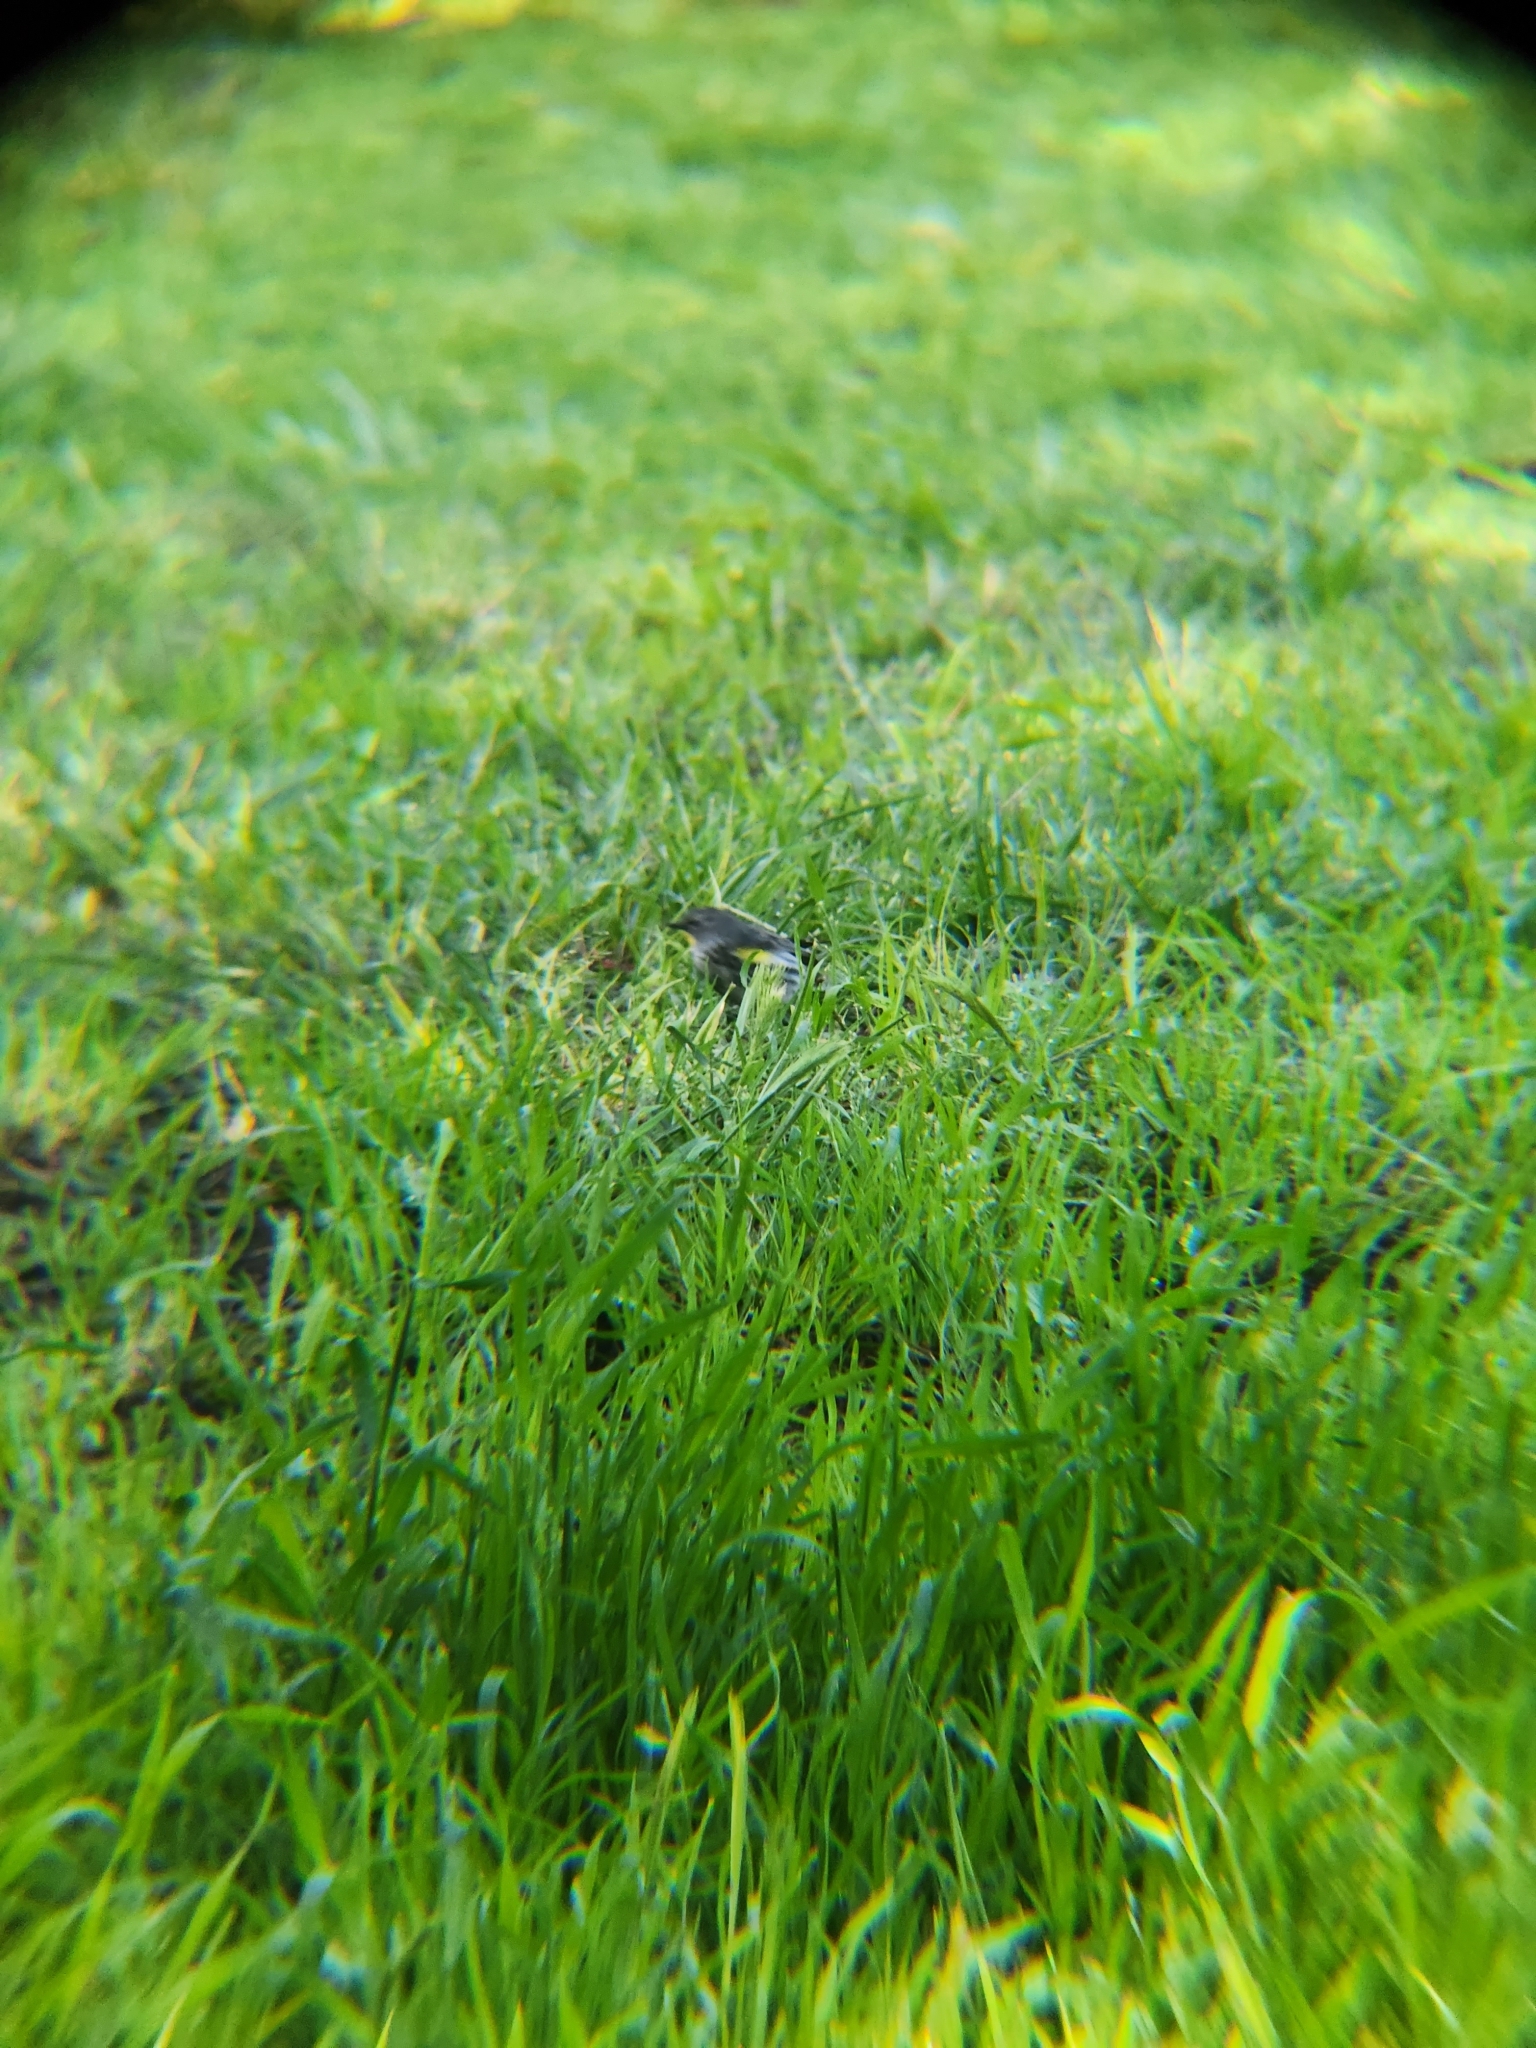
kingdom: Animalia
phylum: Chordata
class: Aves
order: Passeriformes
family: Parulidae
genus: Setophaga
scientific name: Setophaga auduboni
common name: Audubon's warbler
